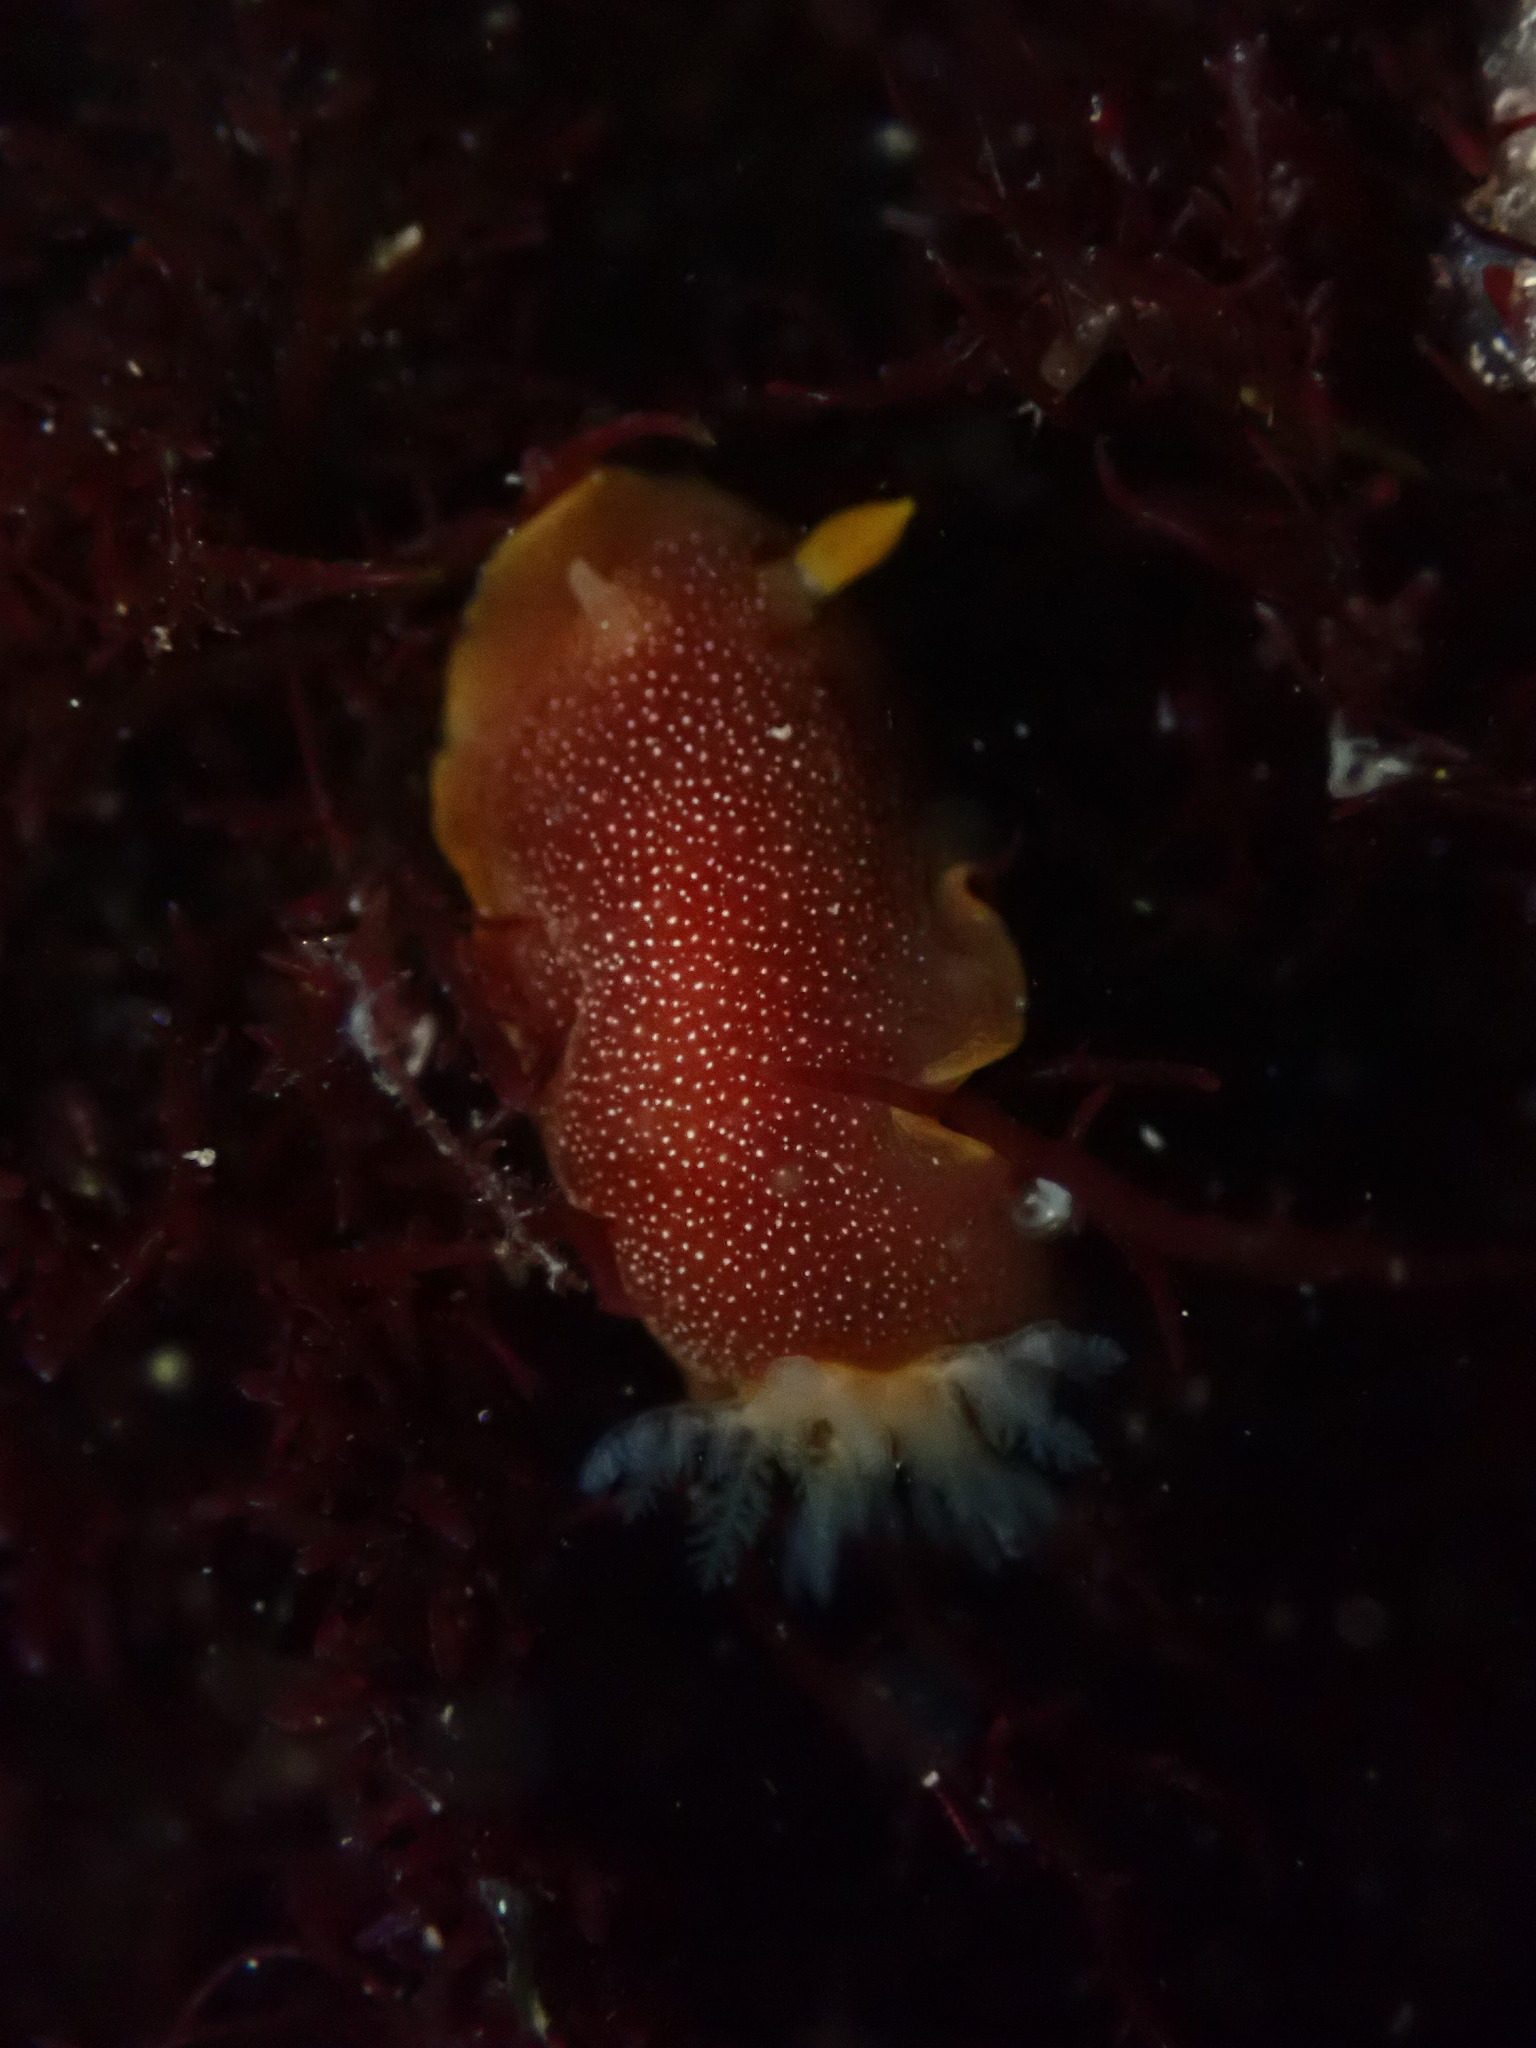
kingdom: Animalia
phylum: Mollusca
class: Gastropoda
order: Nudibranchia
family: Dendrodorididae
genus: Doriopsilla
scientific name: Doriopsilla albopunctata
